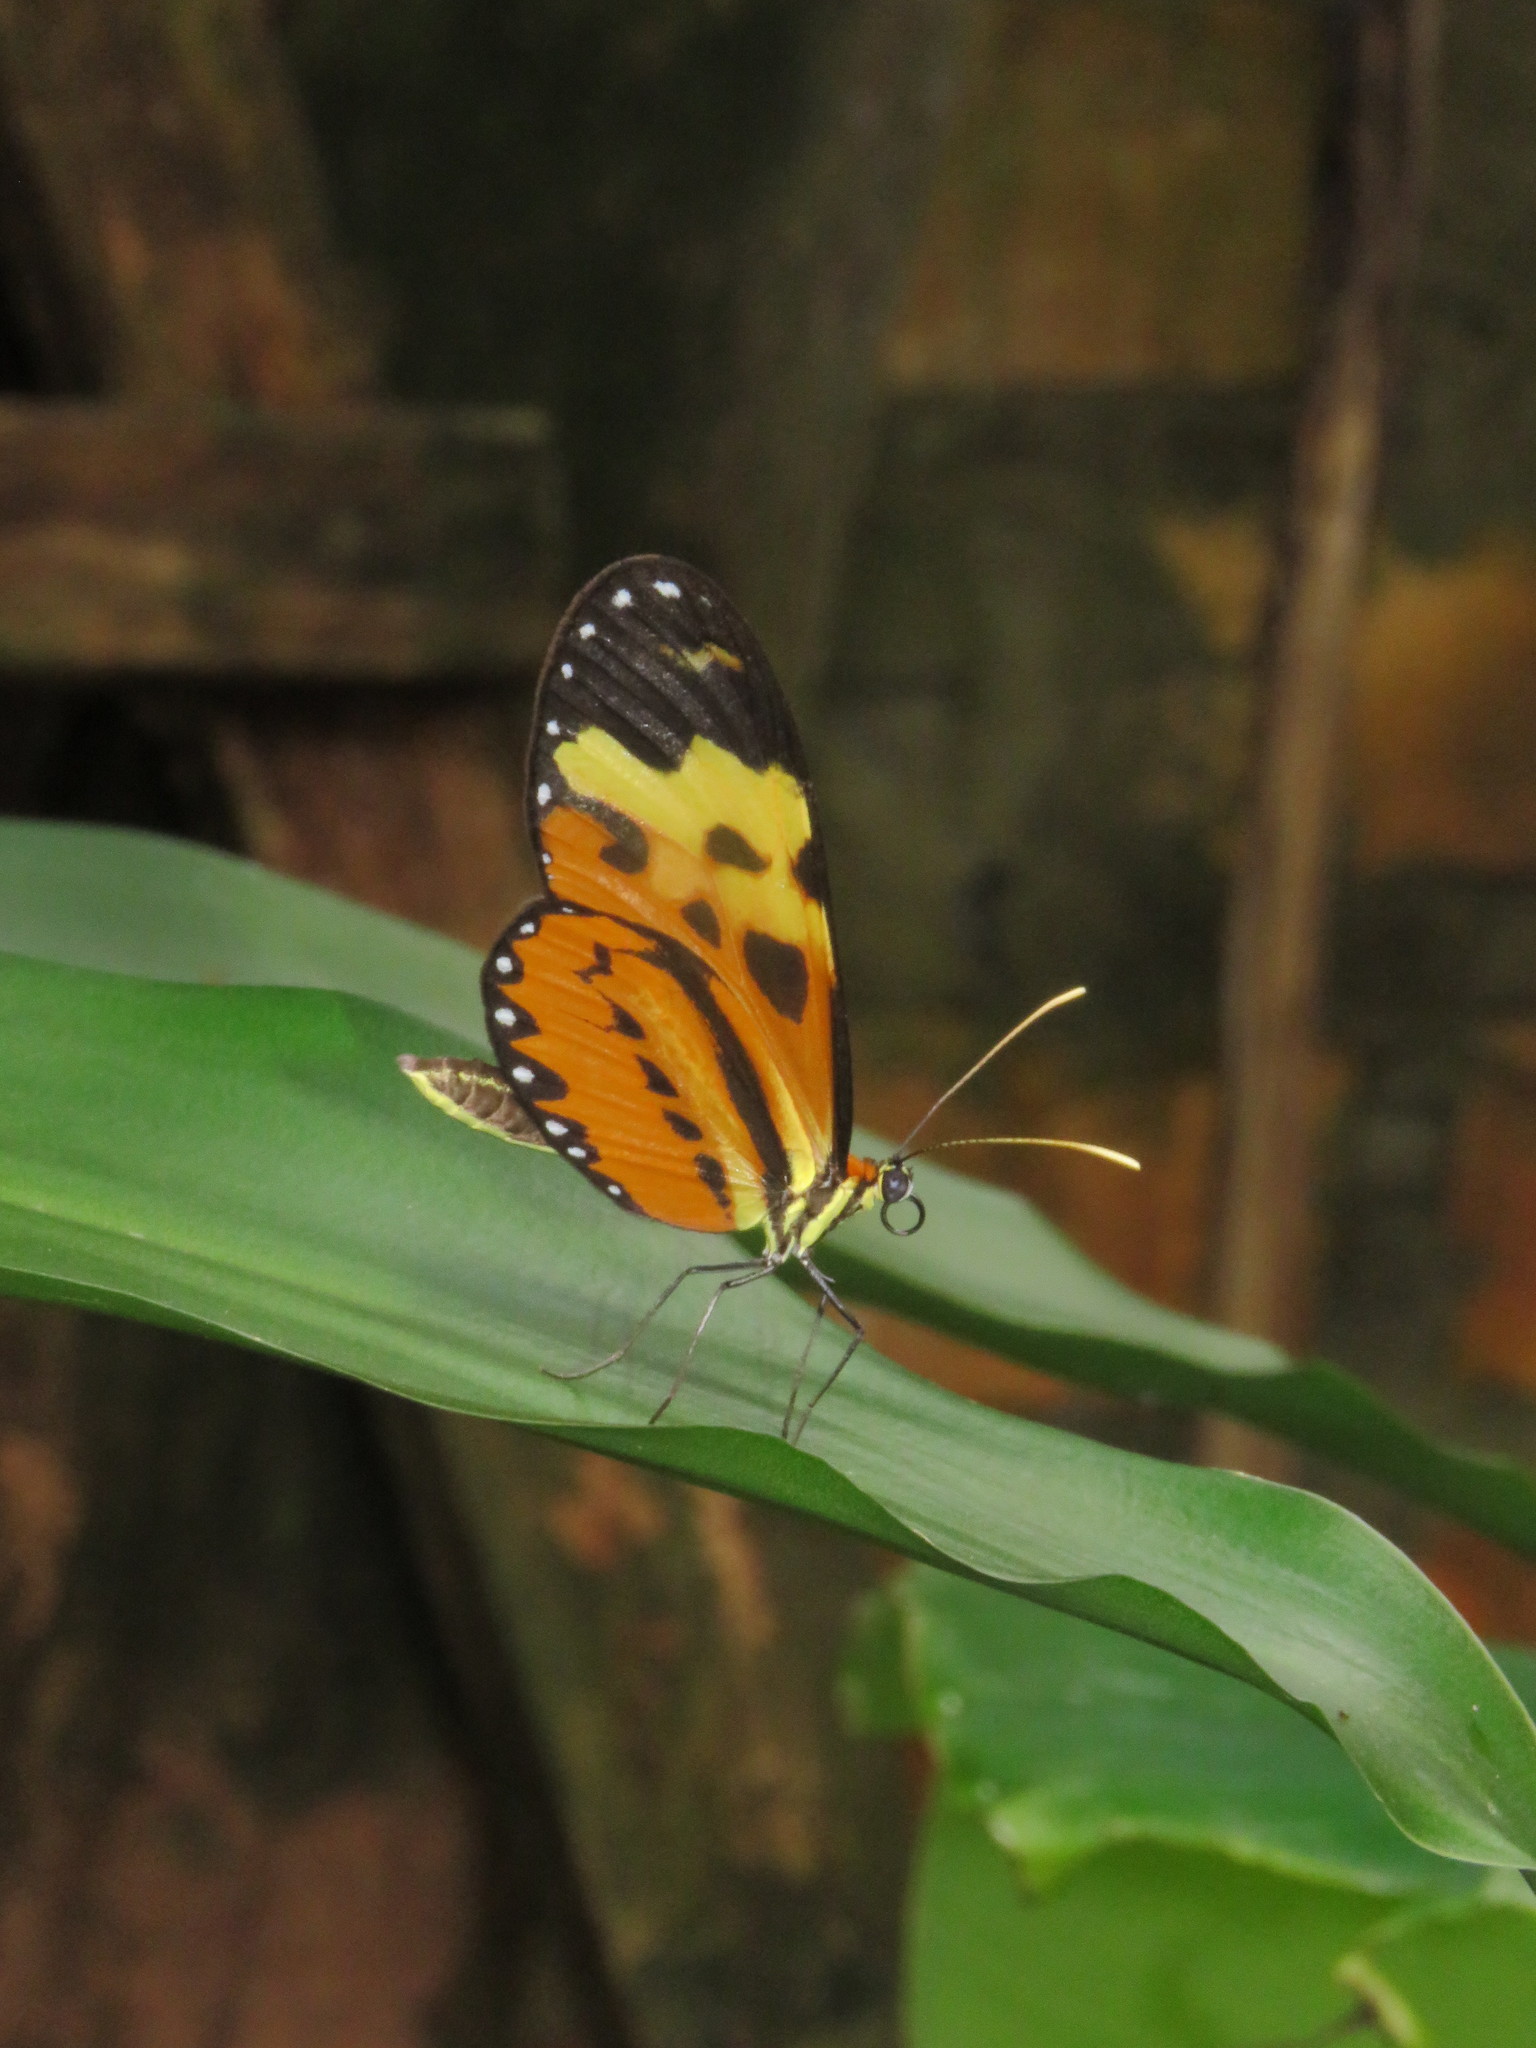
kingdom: Animalia
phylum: Arthropoda
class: Insecta
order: Lepidoptera
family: Nymphalidae
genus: Mechanitis
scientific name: Mechanitis polymnia
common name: Disturbed tigerwing
